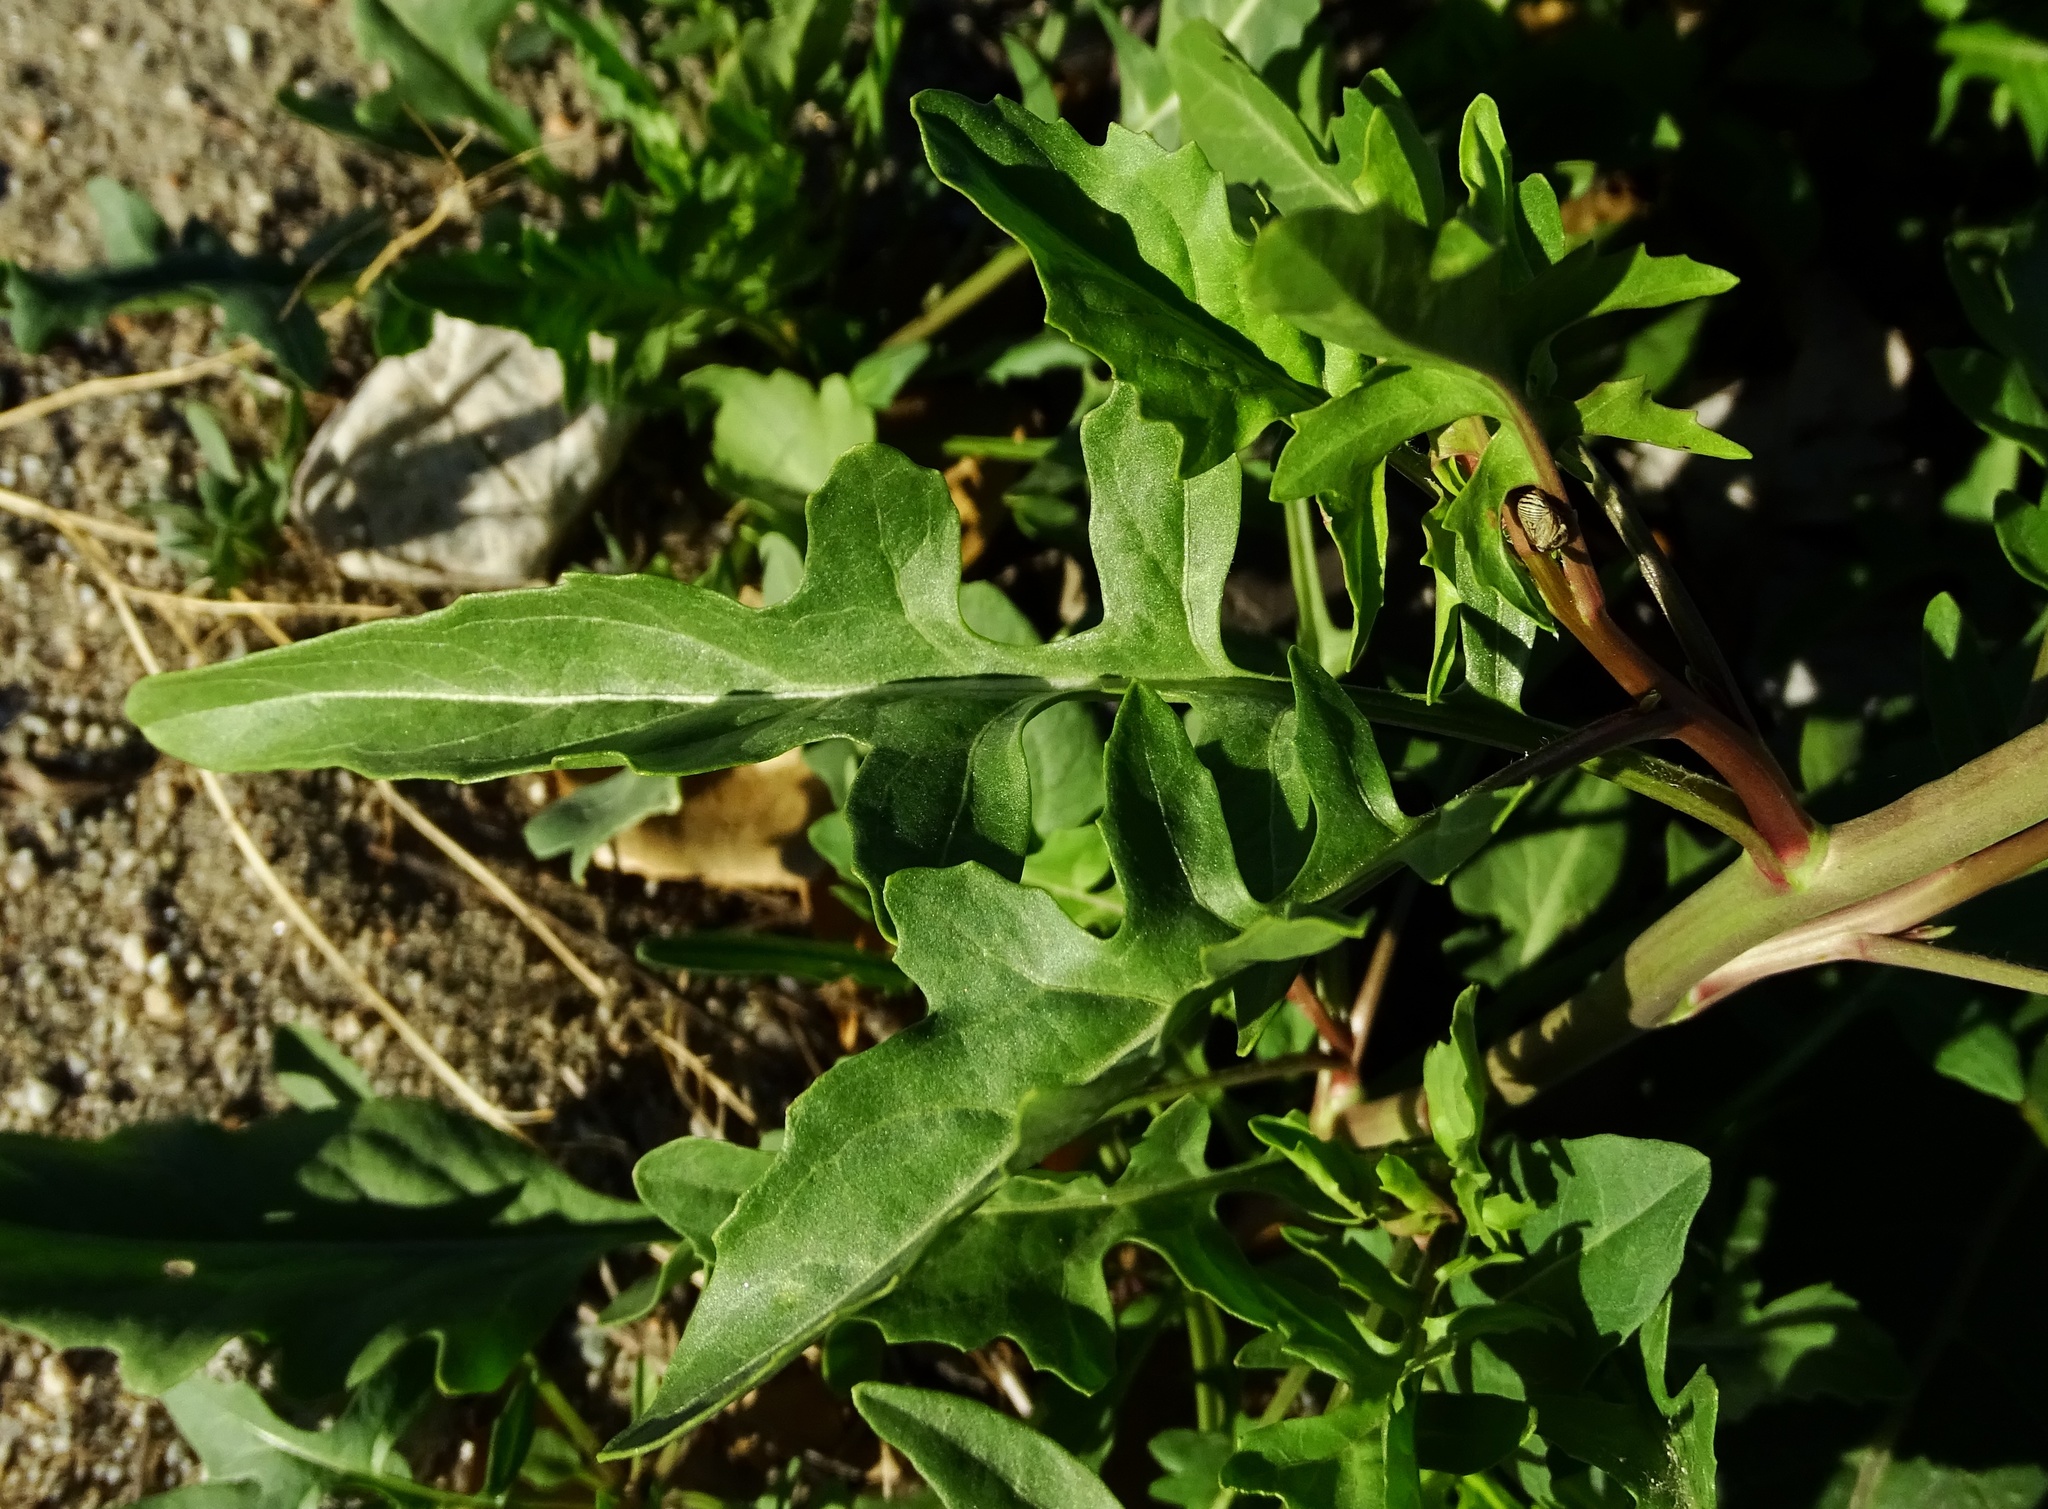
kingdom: Plantae
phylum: Tracheophyta
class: Magnoliopsida
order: Brassicales
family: Brassicaceae
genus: Sisymbrium
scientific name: Sisymbrium irio
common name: London rocket
